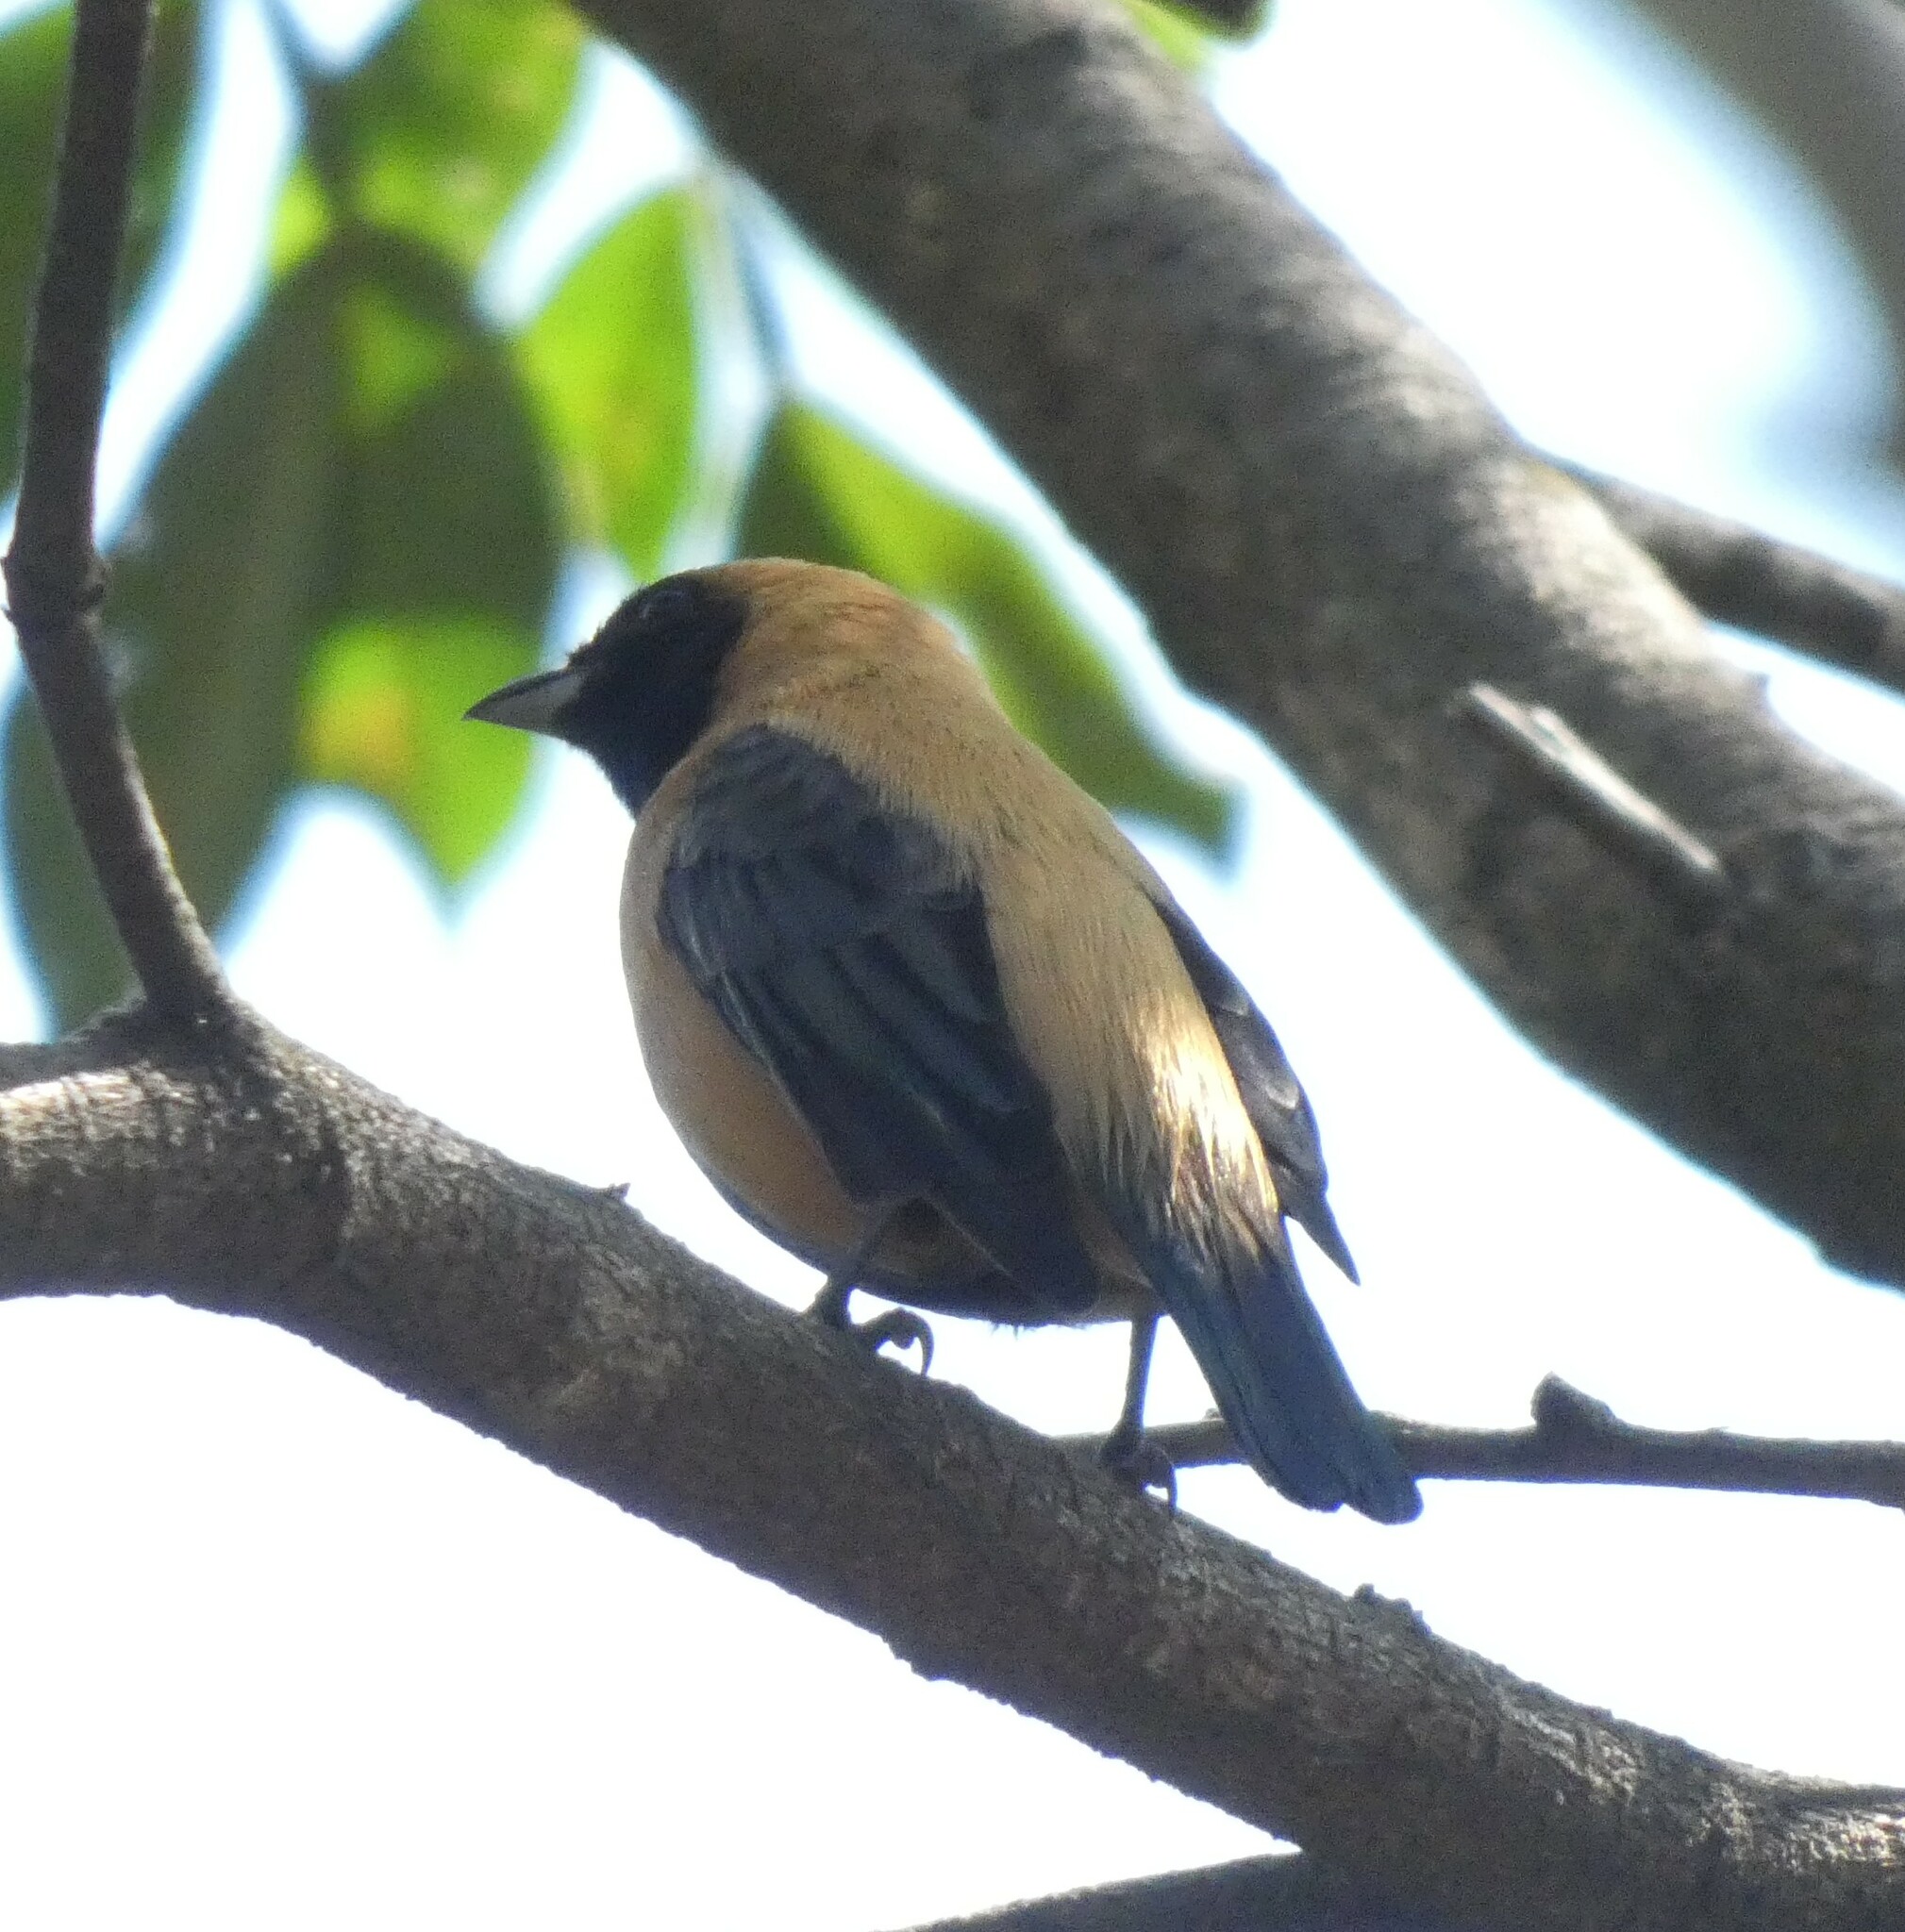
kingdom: Animalia
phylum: Chordata
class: Aves
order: Passeriformes
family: Thraupidae
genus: Stilpnia
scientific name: Stilpnia cayana
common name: Burnished-buff tanager
